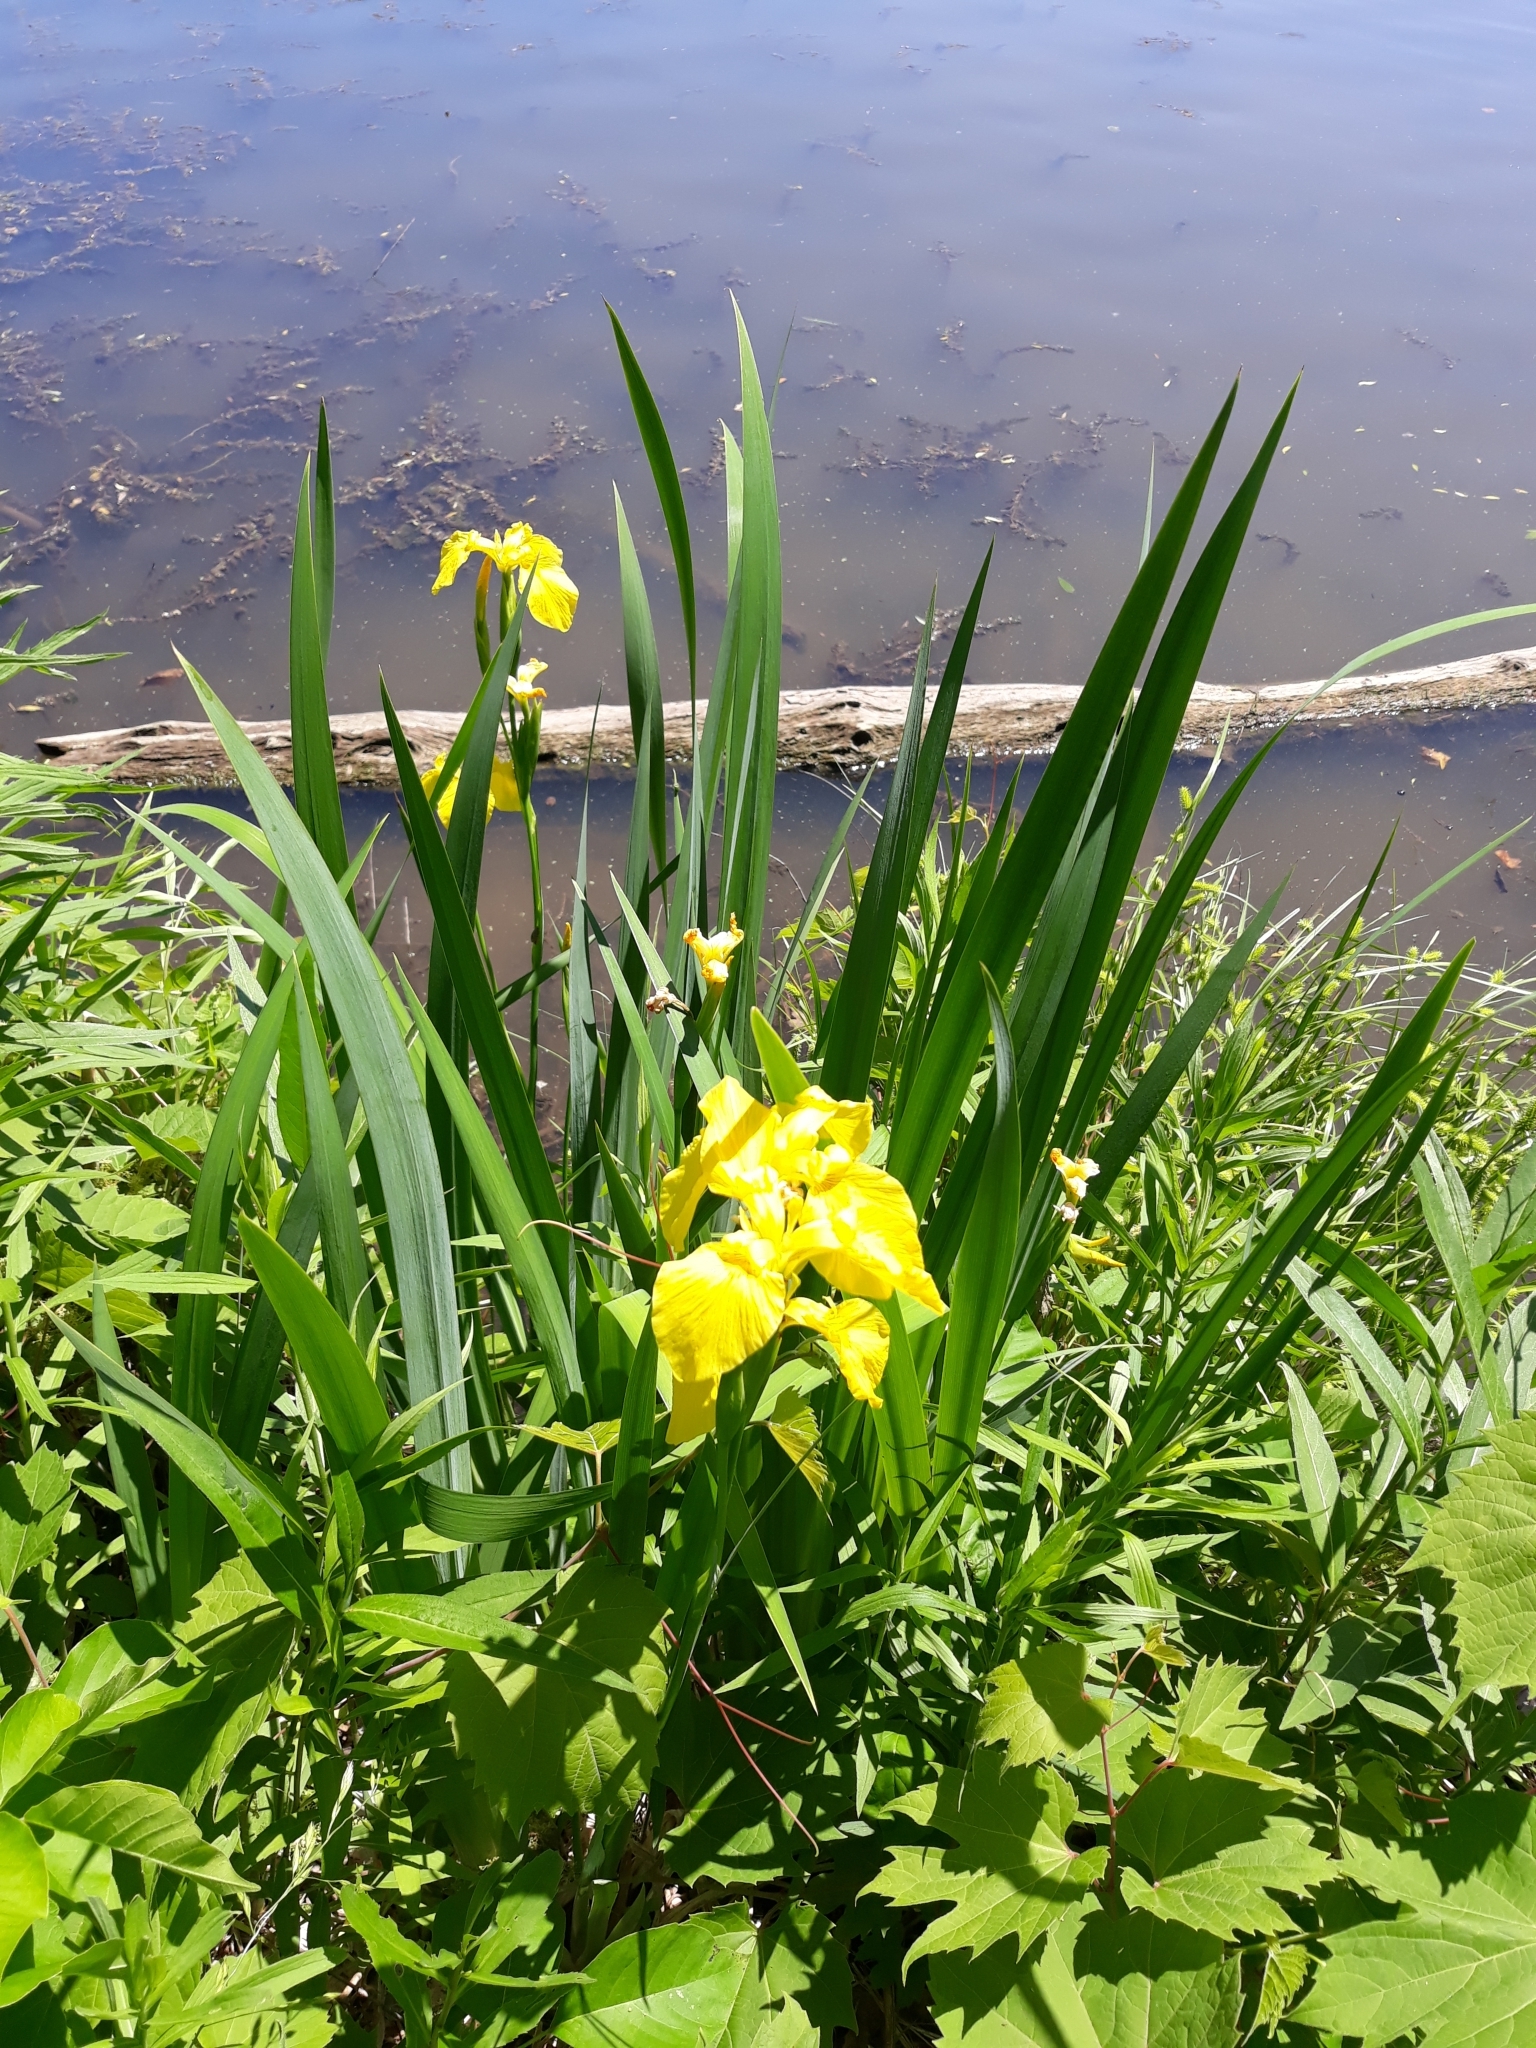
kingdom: Plantae
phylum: Tracheophyta
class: Liliopsida
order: Asparagales
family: Iridaceae
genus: Iris
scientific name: Iris pseudacorus
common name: Yellow flag
